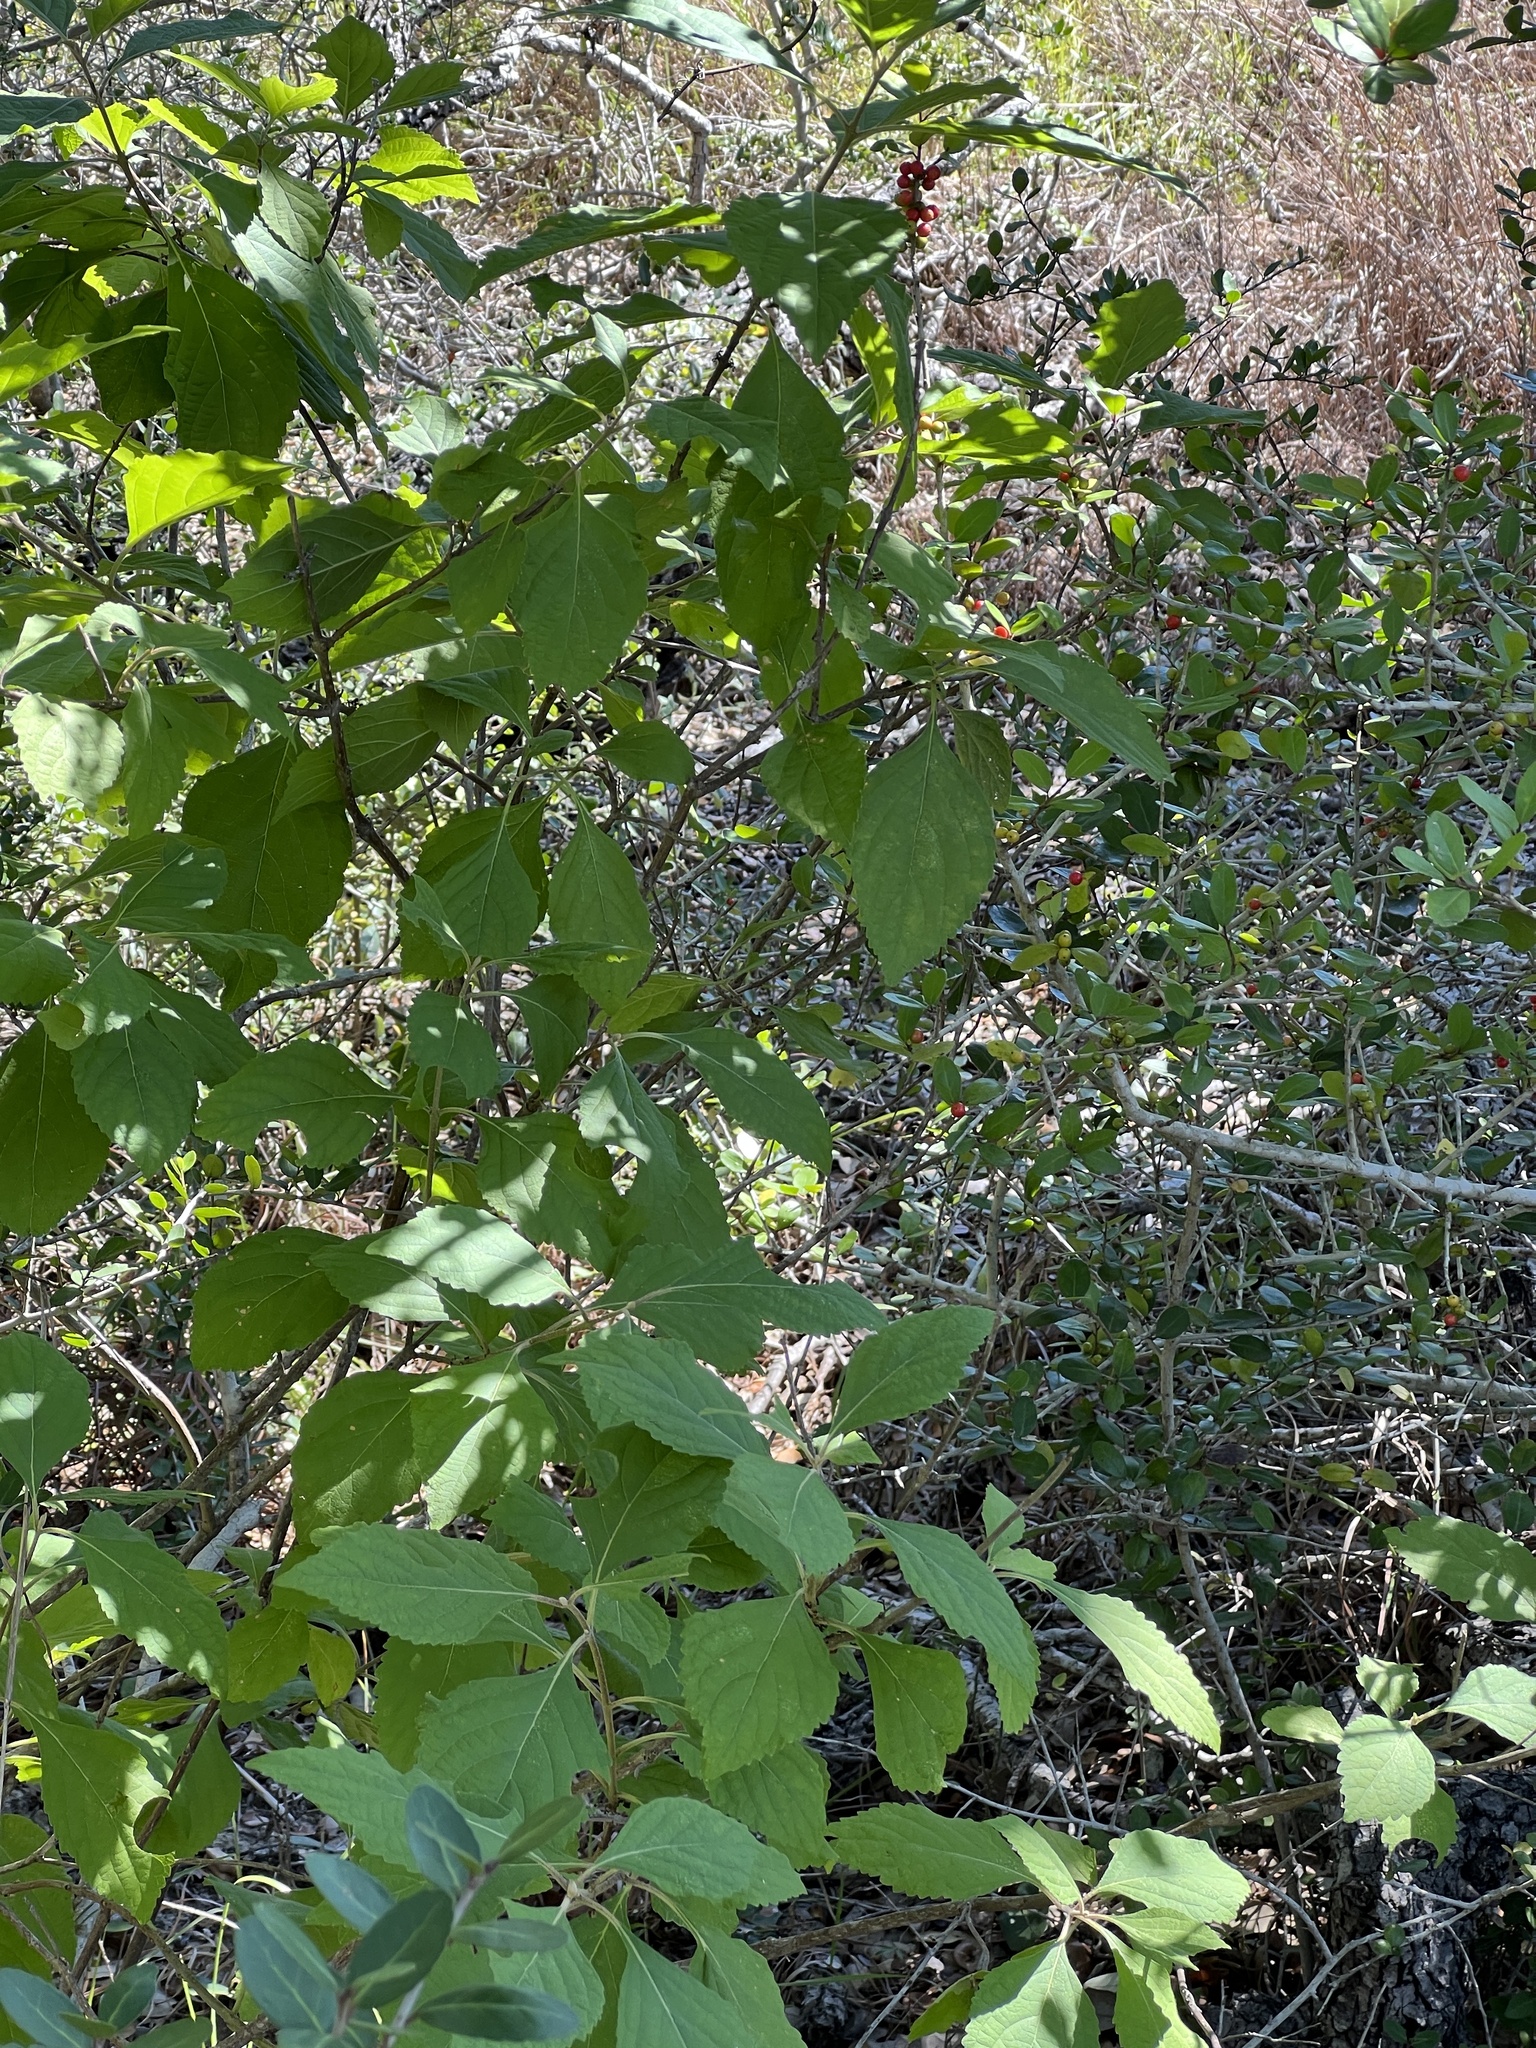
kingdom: Plantae
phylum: Tracheophyta
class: Magnoliopsida
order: Lamiales
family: Lamiaceae
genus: Callicarpa
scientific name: Callicarpa americana
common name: American beautyberry
